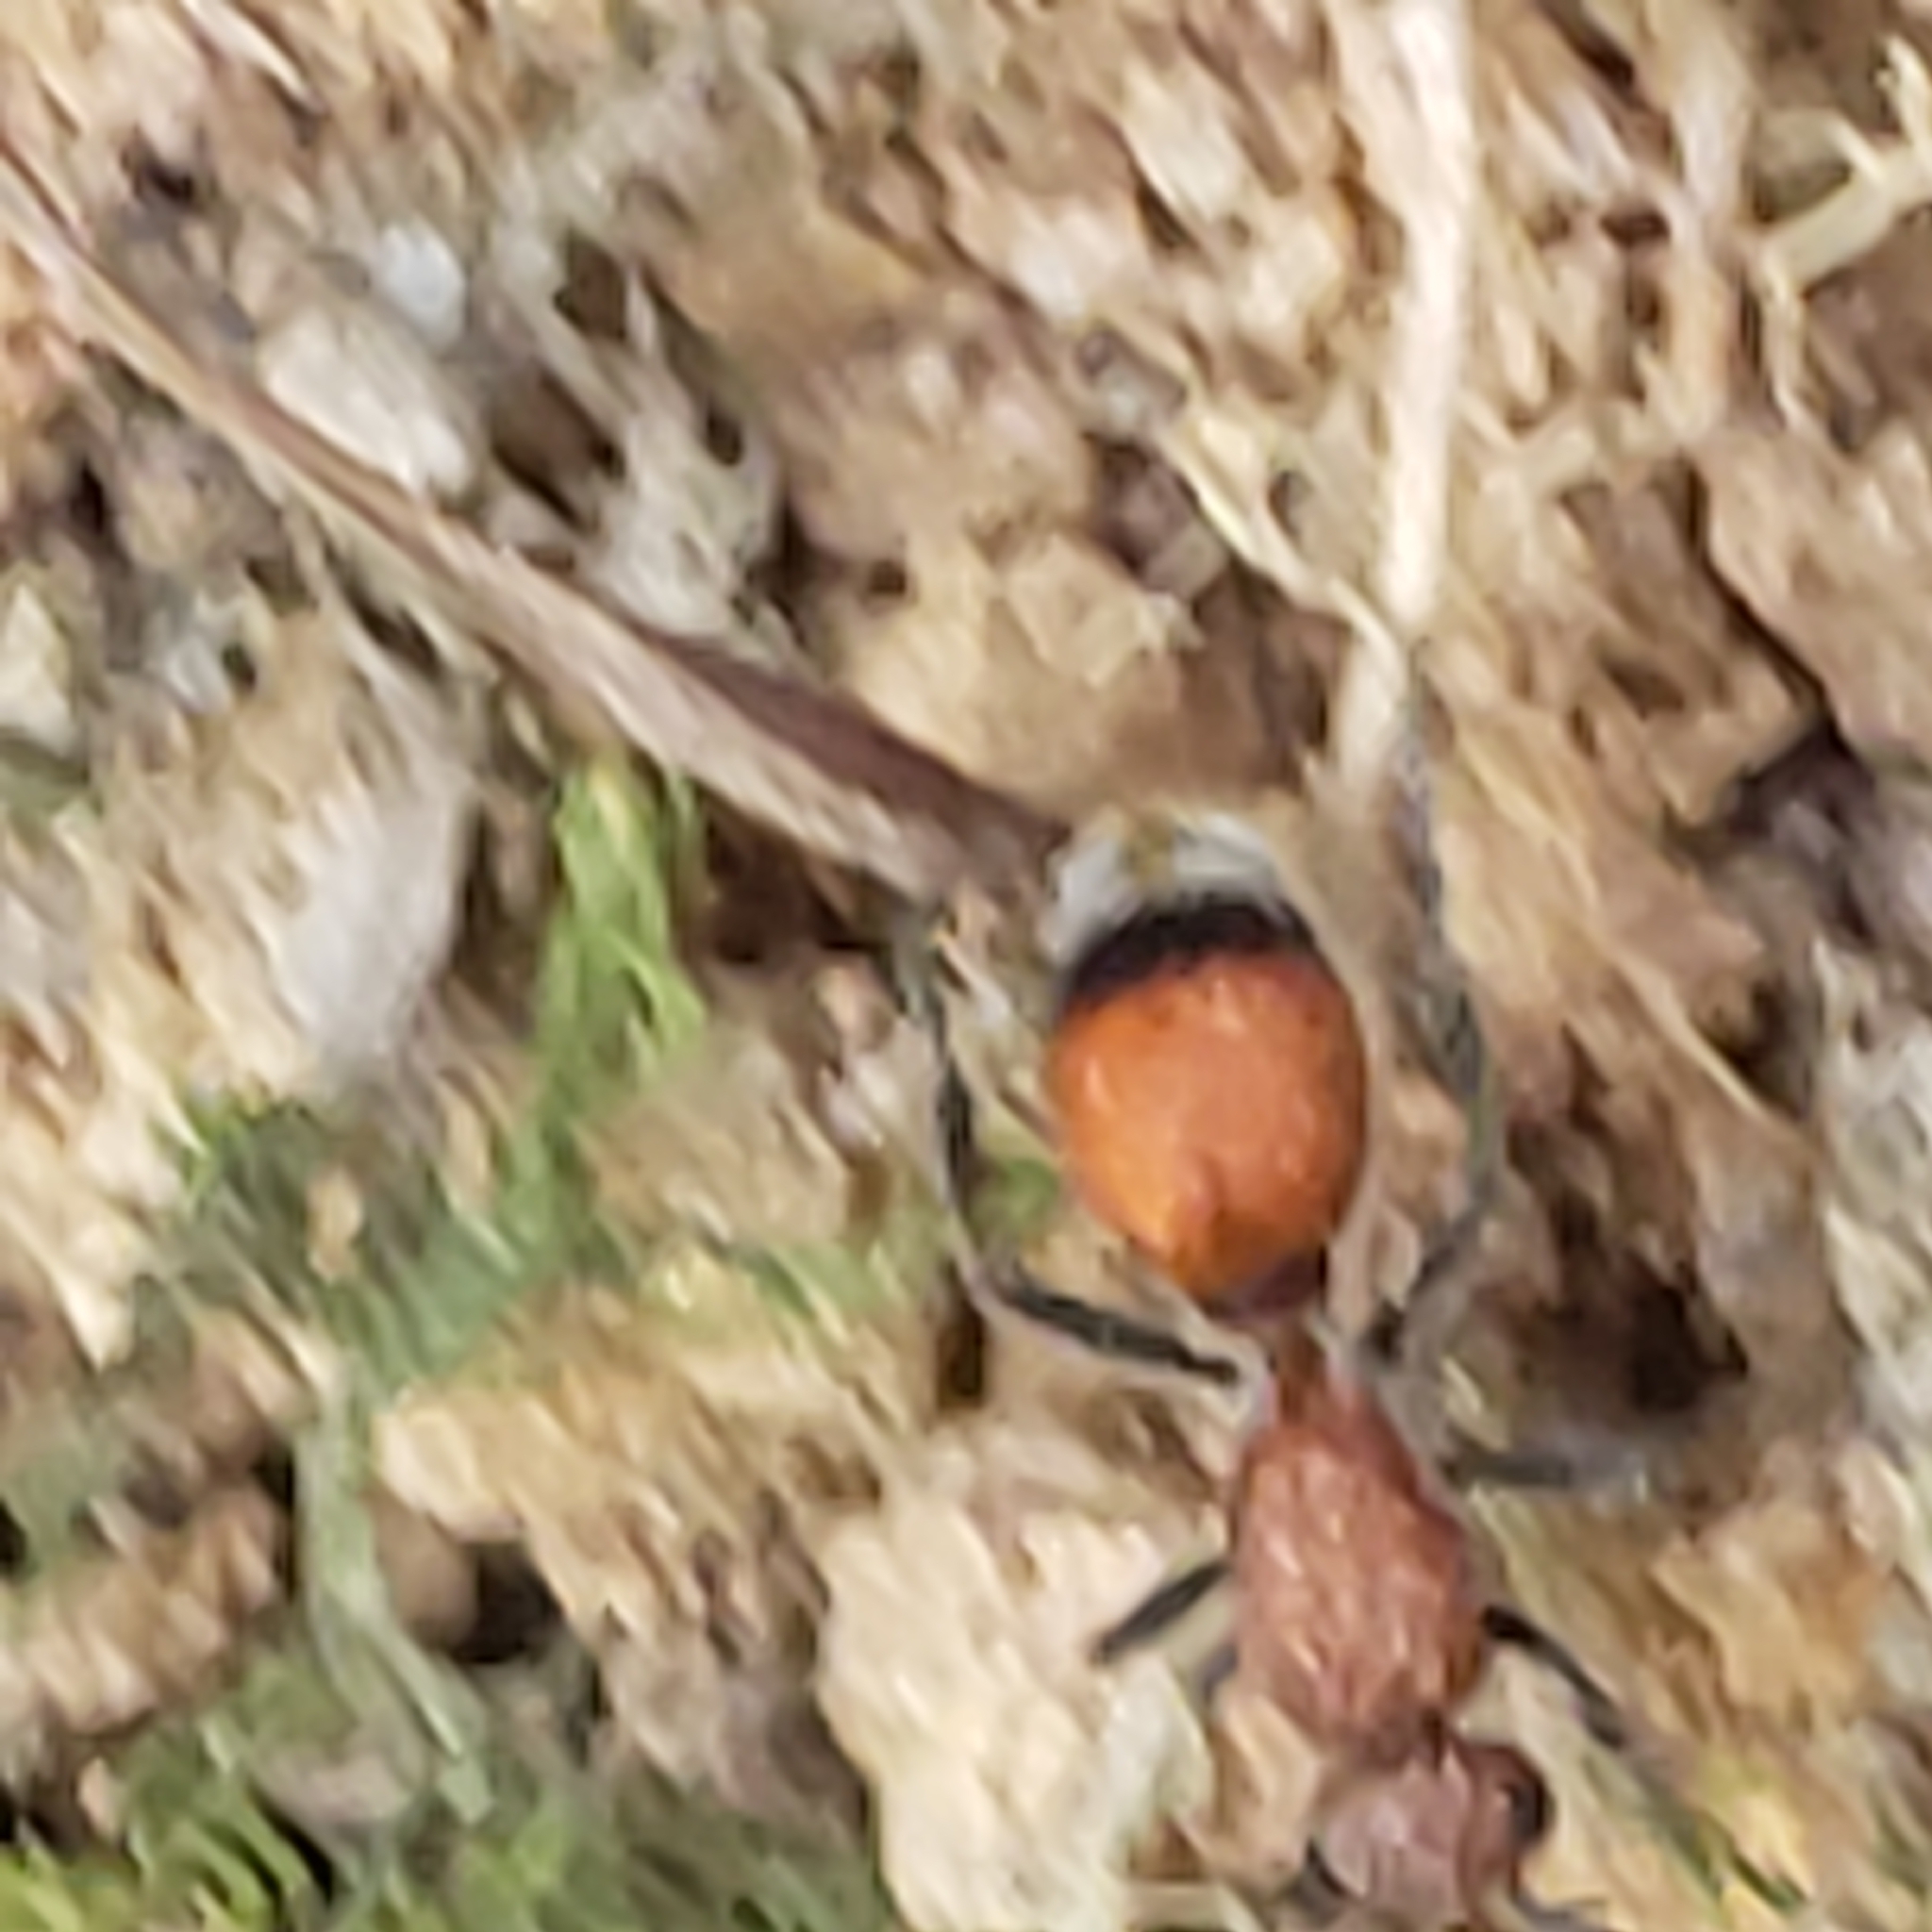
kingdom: Animalia
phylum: Arthropoda
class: Insecta
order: Hymenoptera
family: Mutillidae
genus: Dasymutilla
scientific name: Dasymutilla
